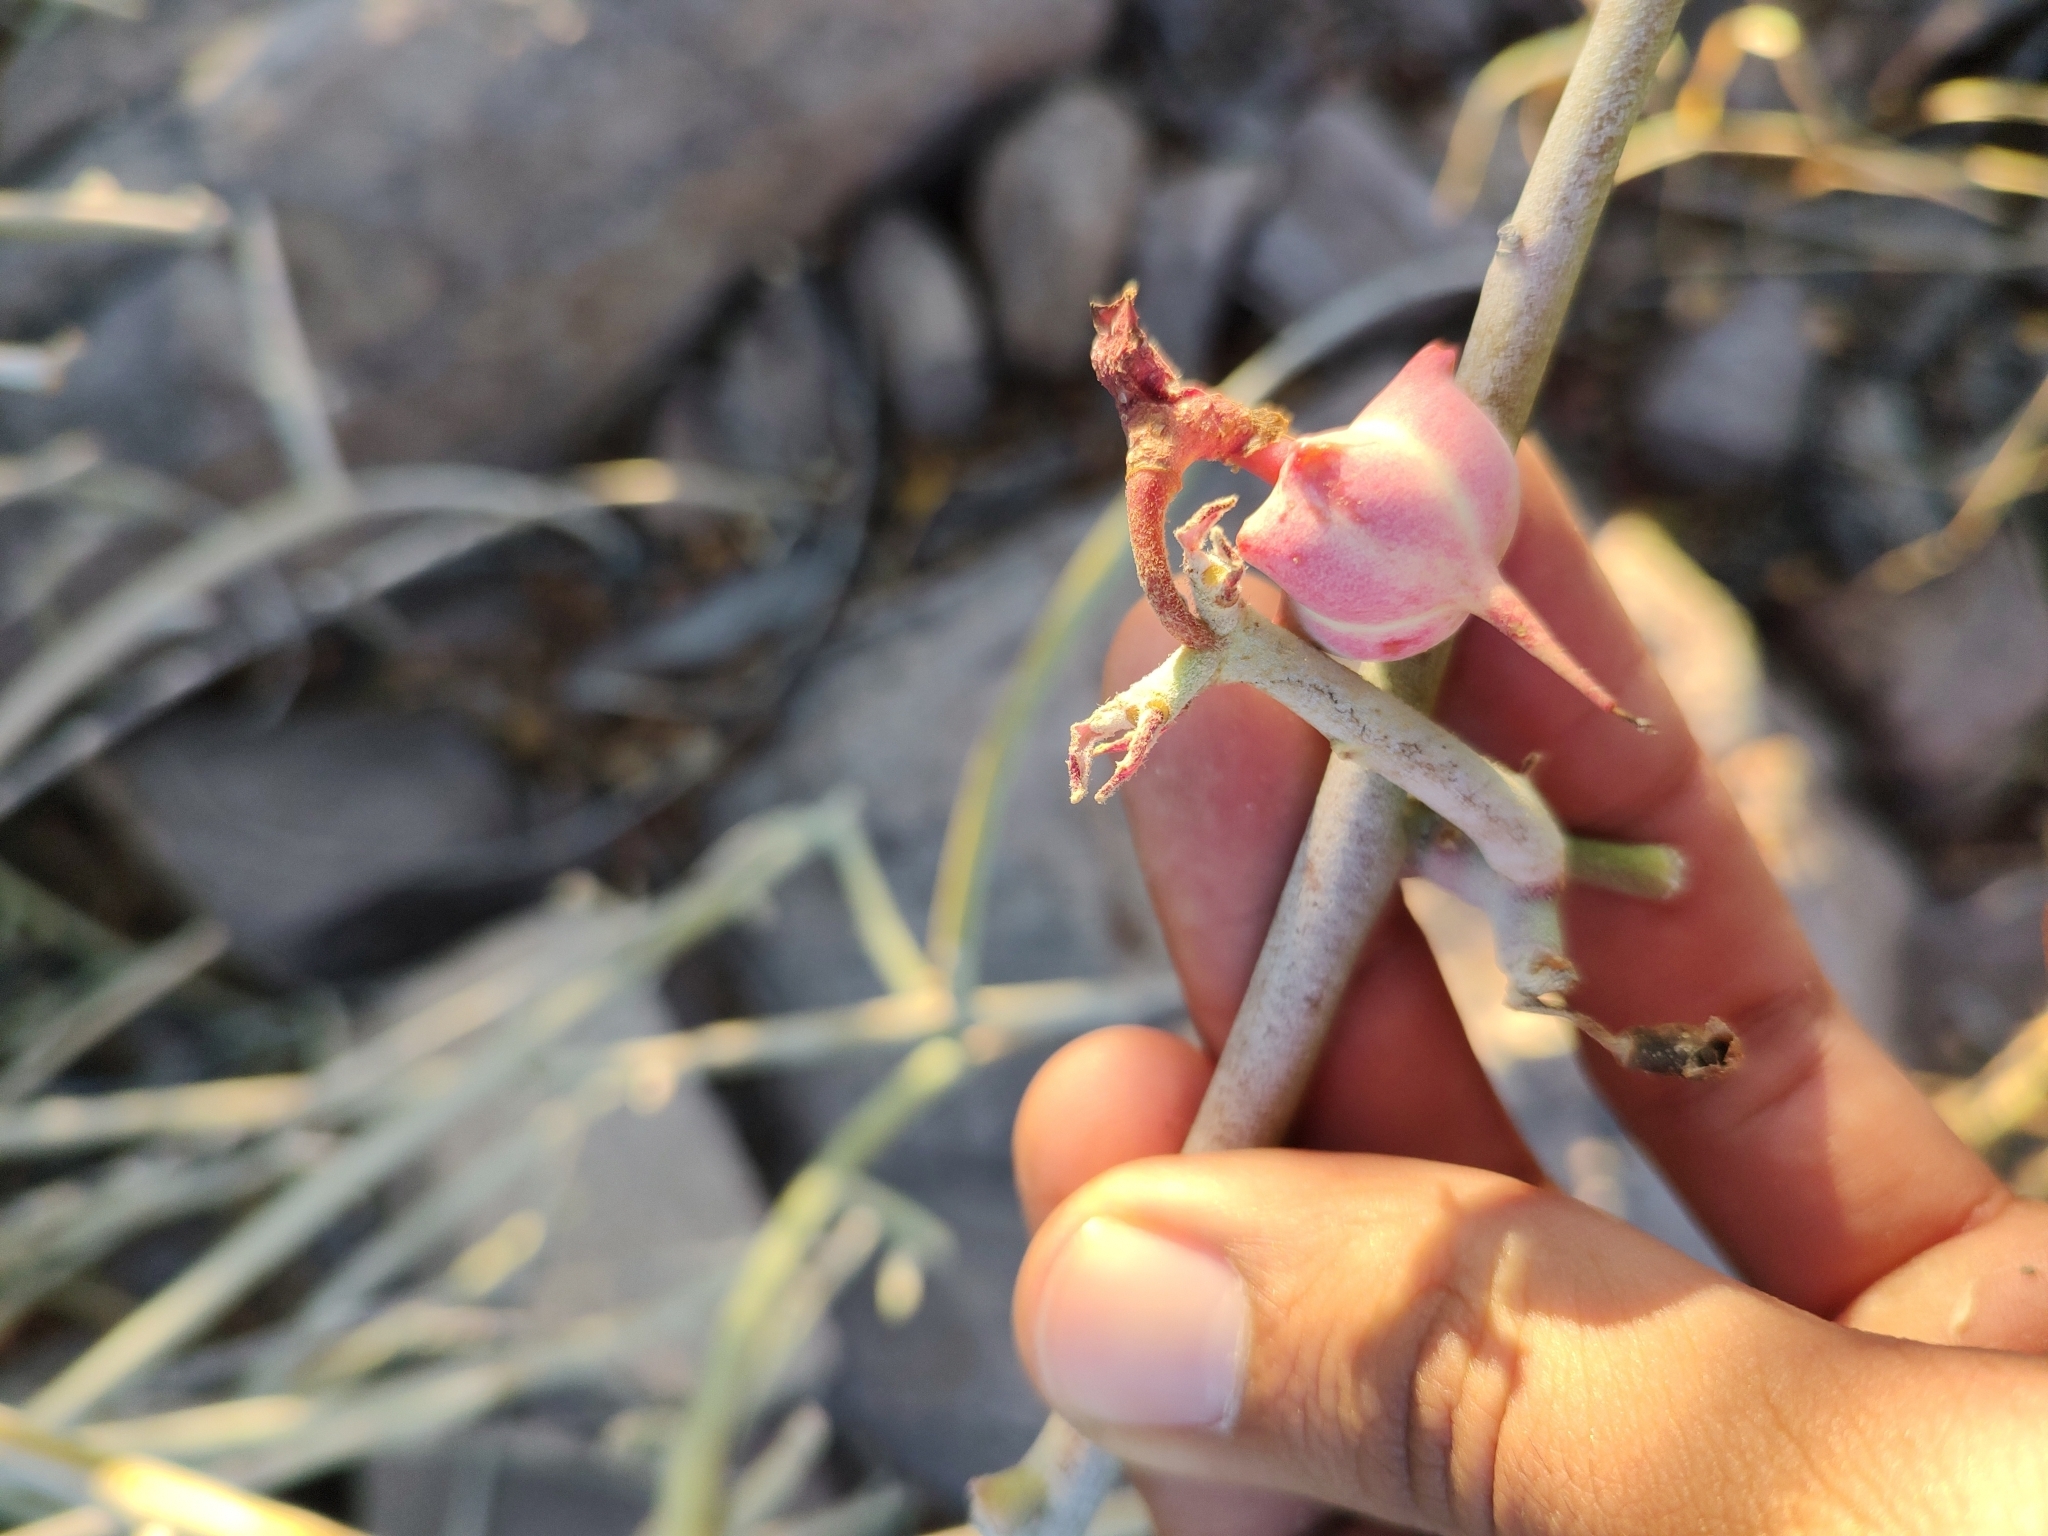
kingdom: Plantae
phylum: Tracheophyta
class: Magnoliopsida
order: Malpighiales
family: Euphorbiaceae
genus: Euphorbia
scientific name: Euphorbia lomelii
